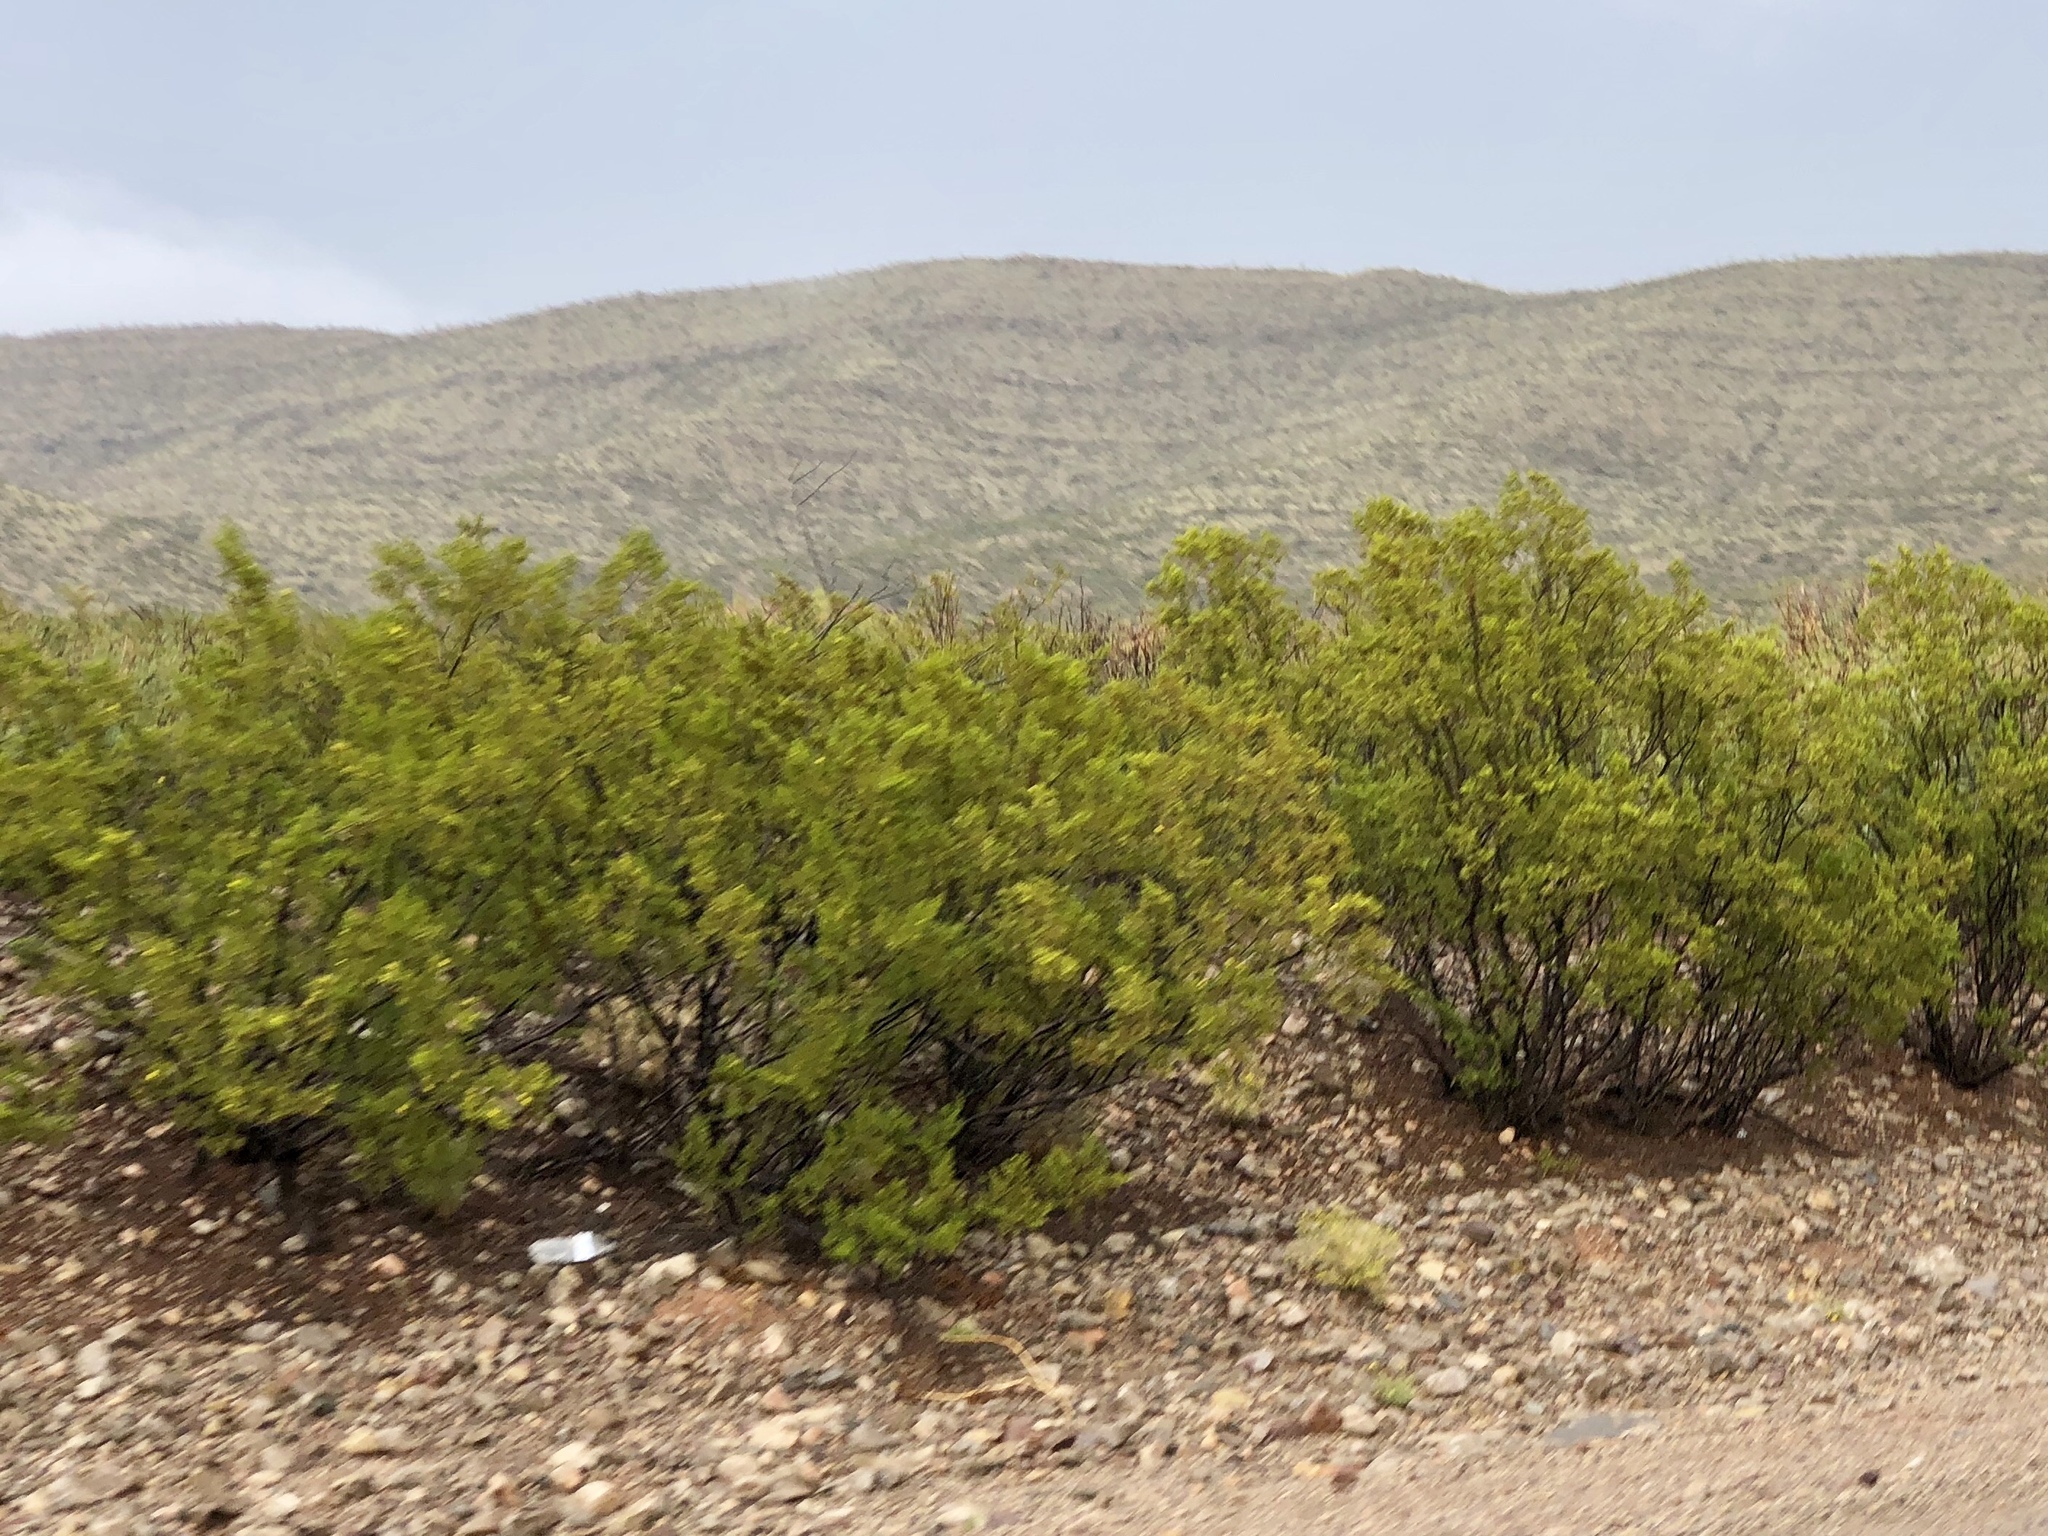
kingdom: Plantae
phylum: Tracheophyta
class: Magnoliopsida
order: Zygophyllales
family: Zygophyllaceae
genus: Larrea
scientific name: Larrea tridentata
